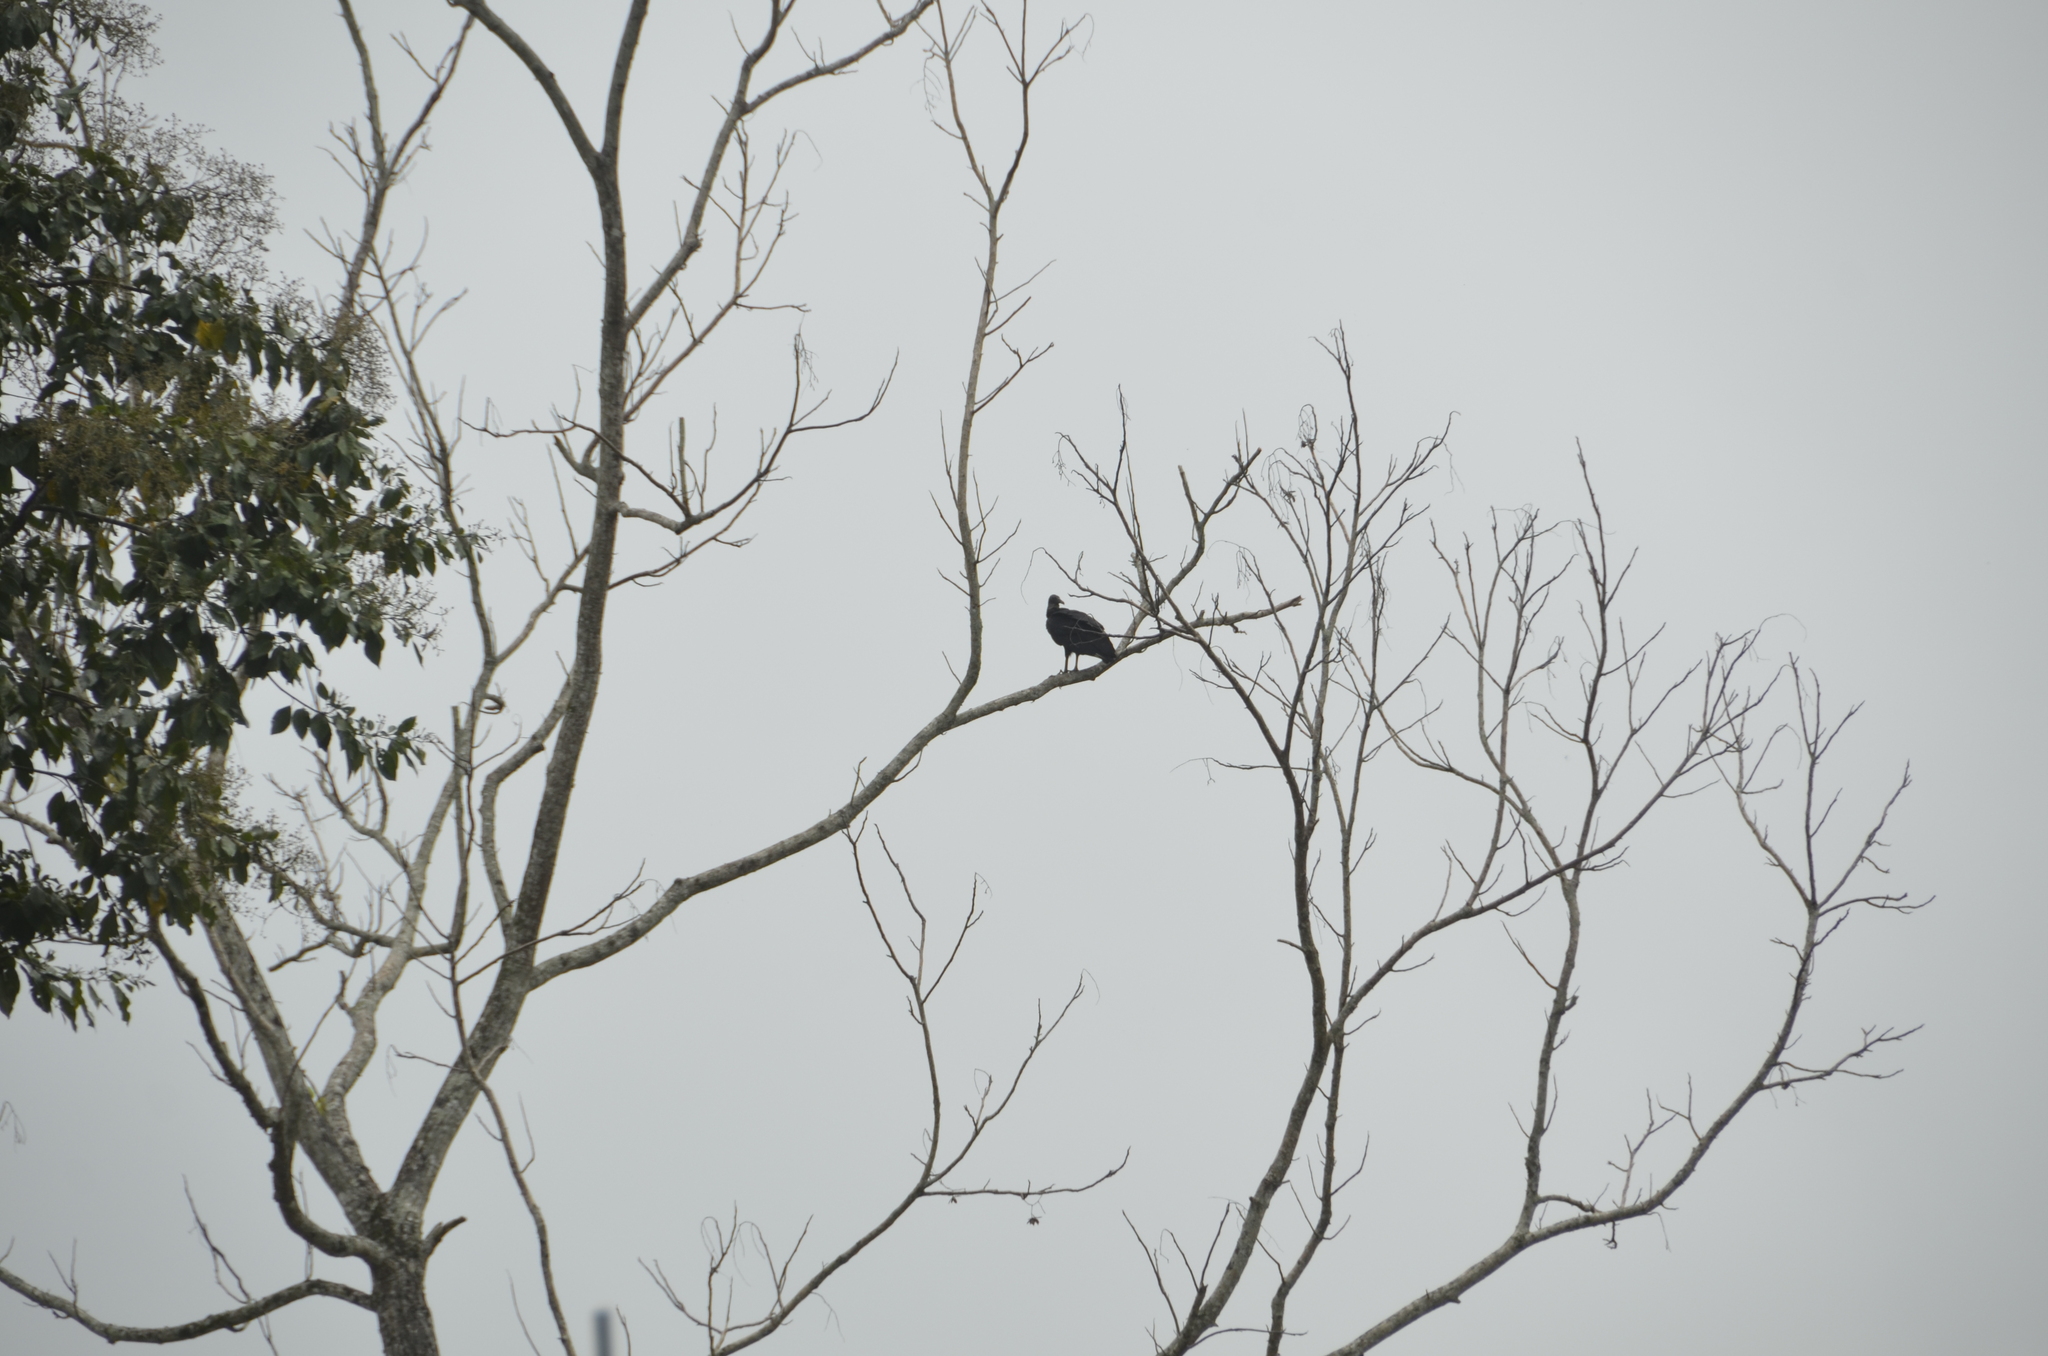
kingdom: Animalia
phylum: Chordata
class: Aves
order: Accipitriformes
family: Cathartidae
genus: Coragyps
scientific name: Coragyps atratus
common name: Black vulture
